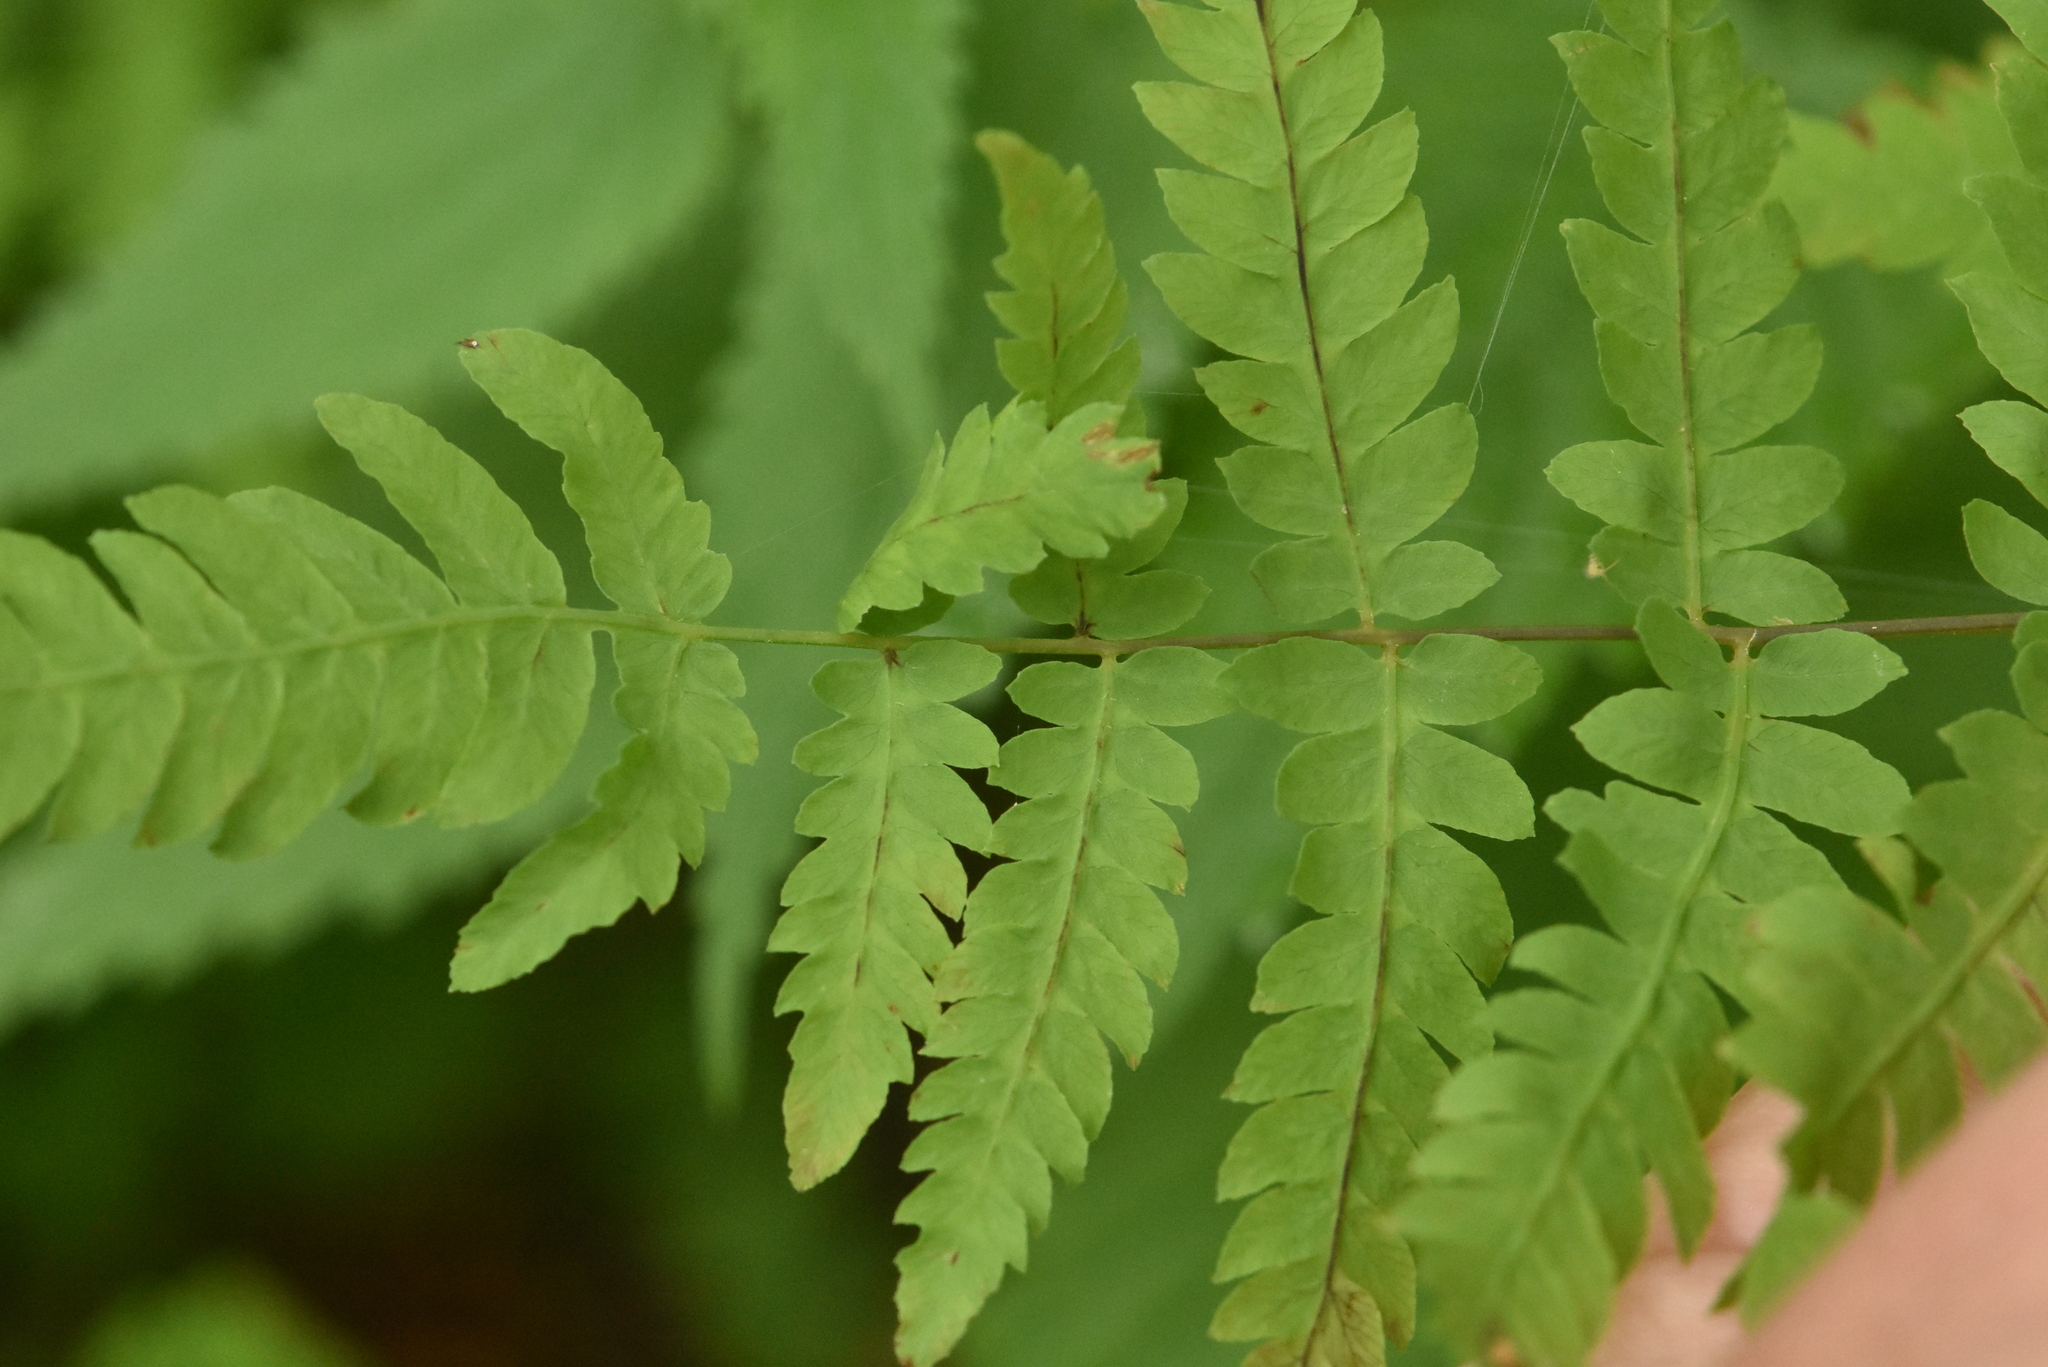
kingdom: Plantae
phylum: Tracheophyta
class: Polypodiopsida
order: Polypodiales
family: Thelypteridaceae
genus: Thelypteris
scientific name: Thelypteris palustris
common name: Marsh fern
